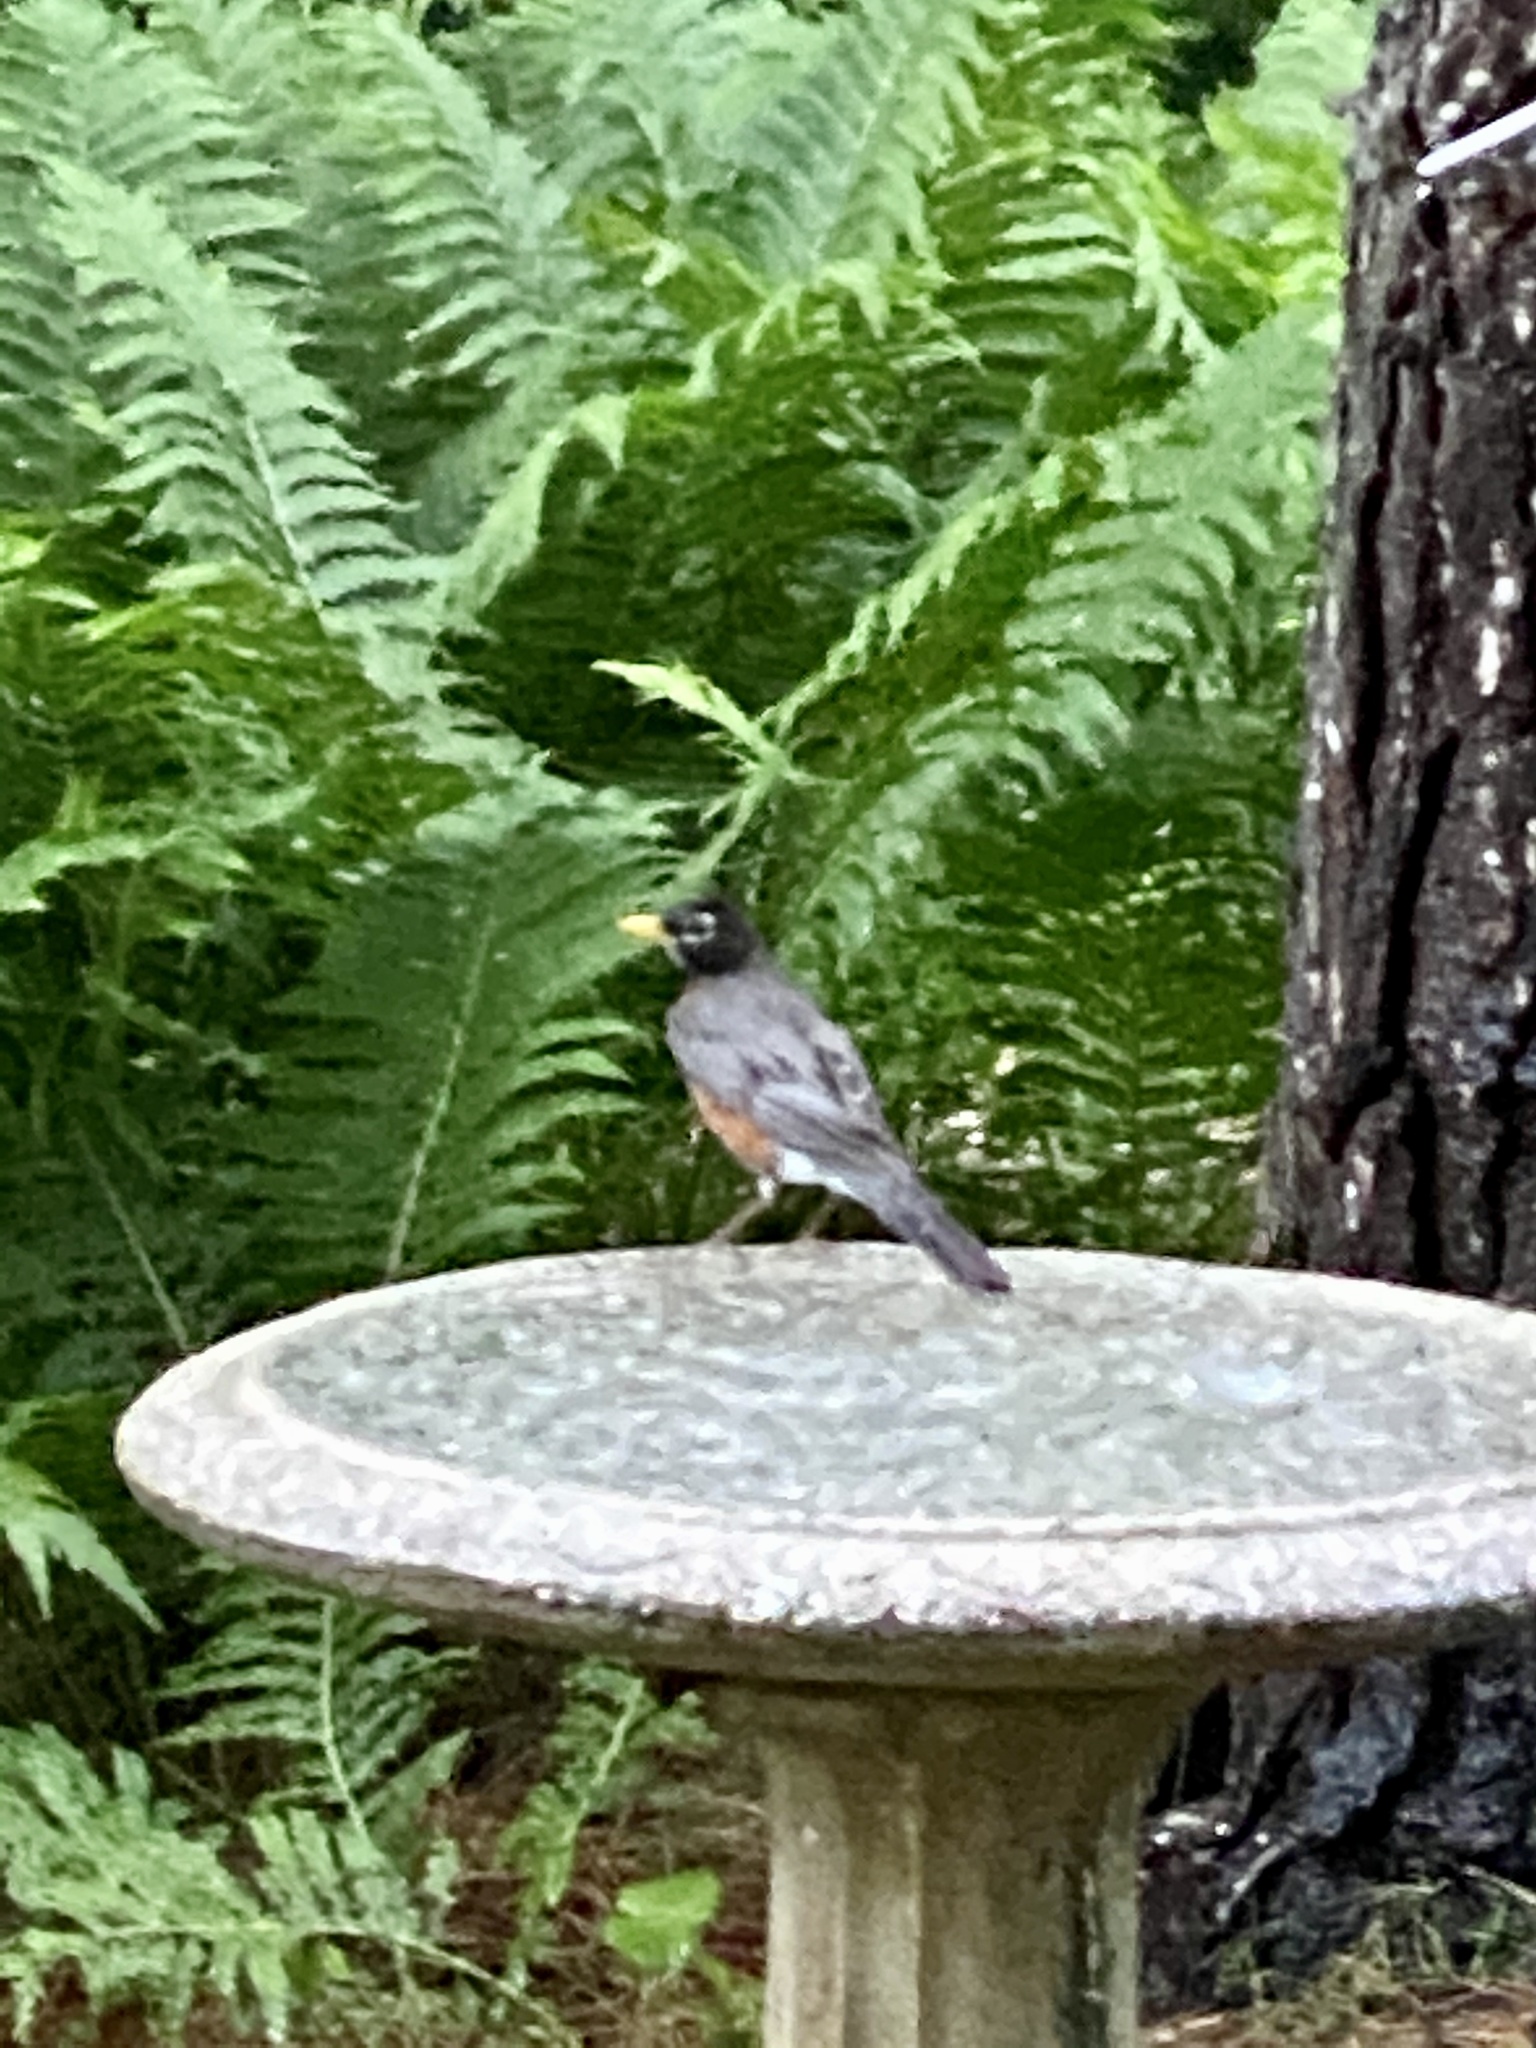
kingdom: Animalia
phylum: Chordata
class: Aves
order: Passeriformes
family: Turdidae
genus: Turdus
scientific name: Turdus migratorius
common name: American robin
